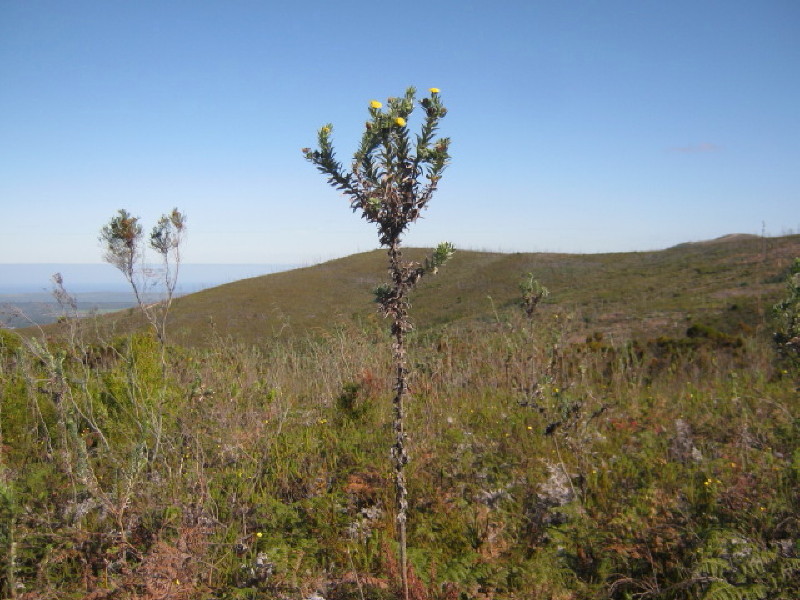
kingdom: Plantae
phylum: Tracheophyta
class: Magnoliopsida
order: Asterales
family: Asteraceae
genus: Schistostephium
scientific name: Schistostephium umbellatum
